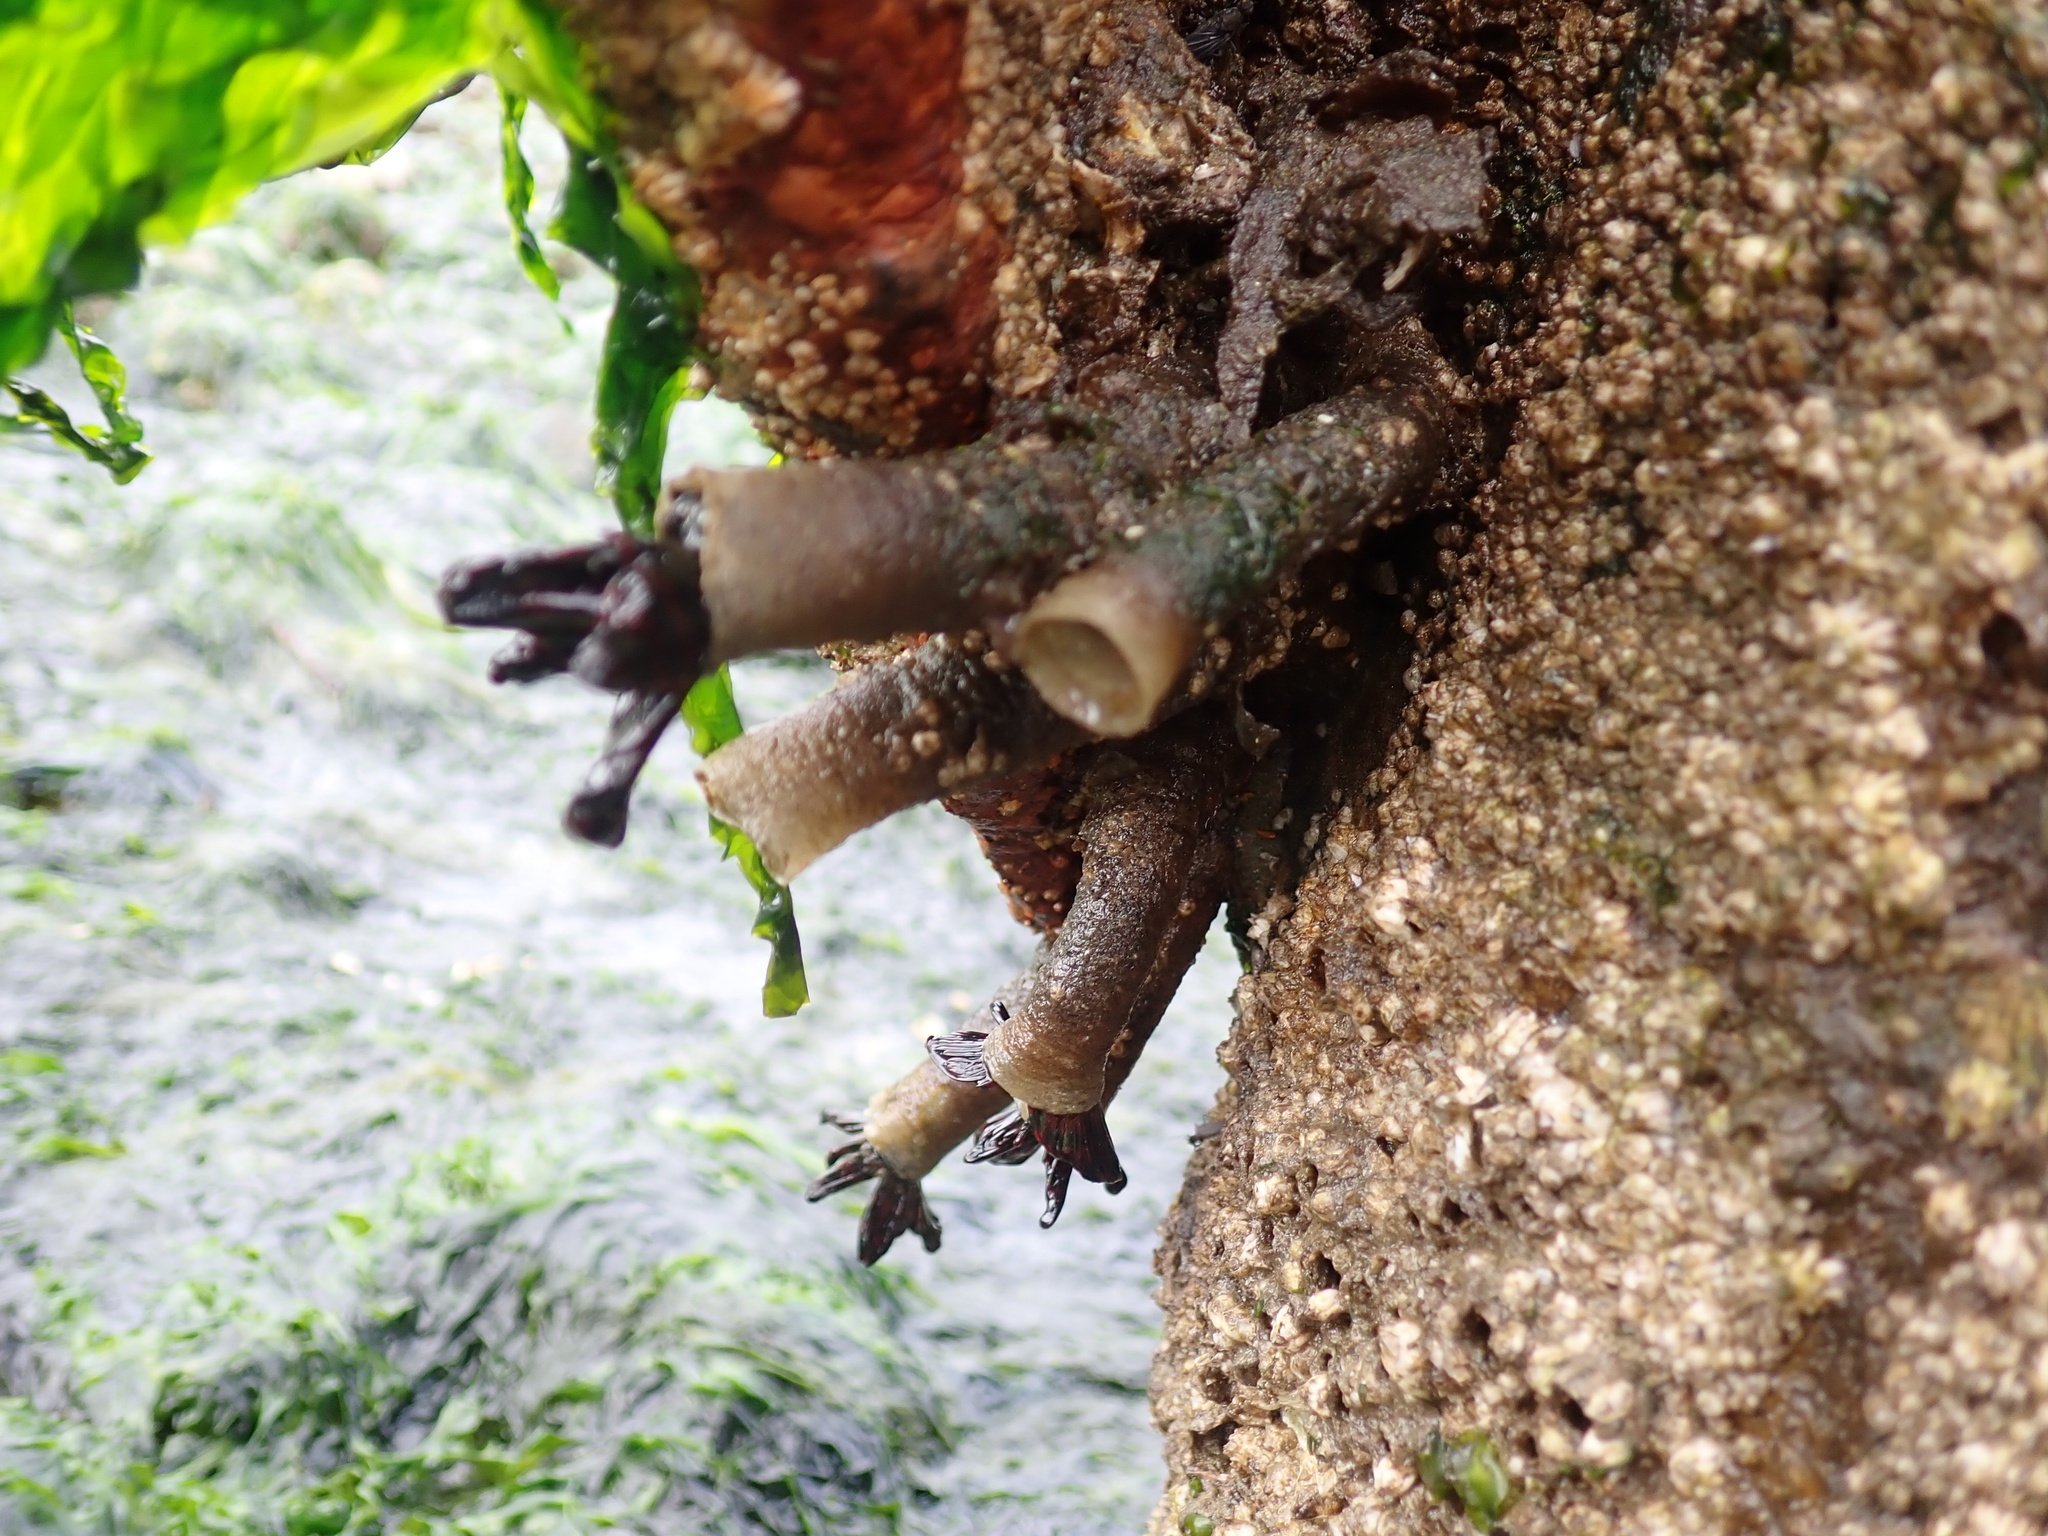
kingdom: Animalia
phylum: Annelida
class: Polychaeta
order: Sabellida
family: Sabellidae
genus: Eudistylia
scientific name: Eudistylia vancouveri
